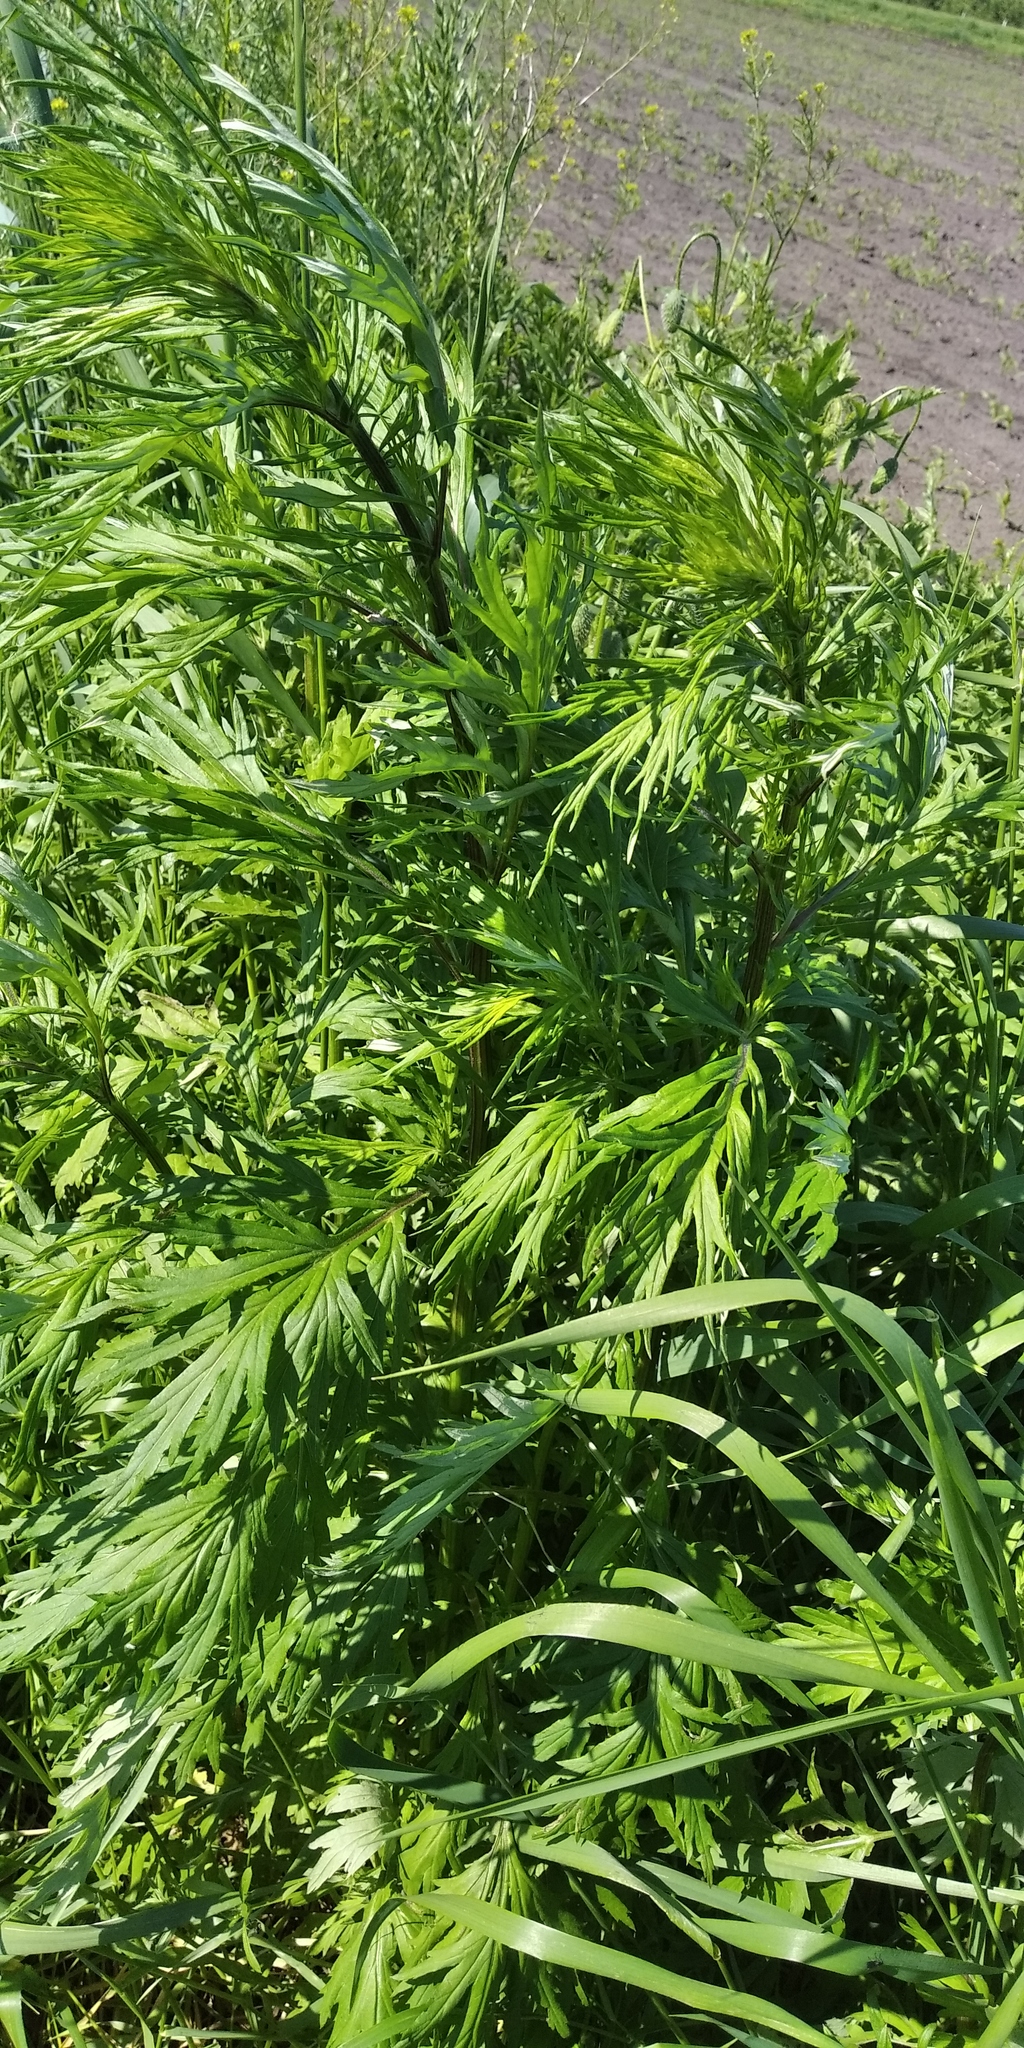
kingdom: Plantae
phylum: Tracheophyta
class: Magnoliopsida
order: Asterales
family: Asteraceae
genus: Artemisia
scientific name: Artemisia vulgaris
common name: Mugwort
